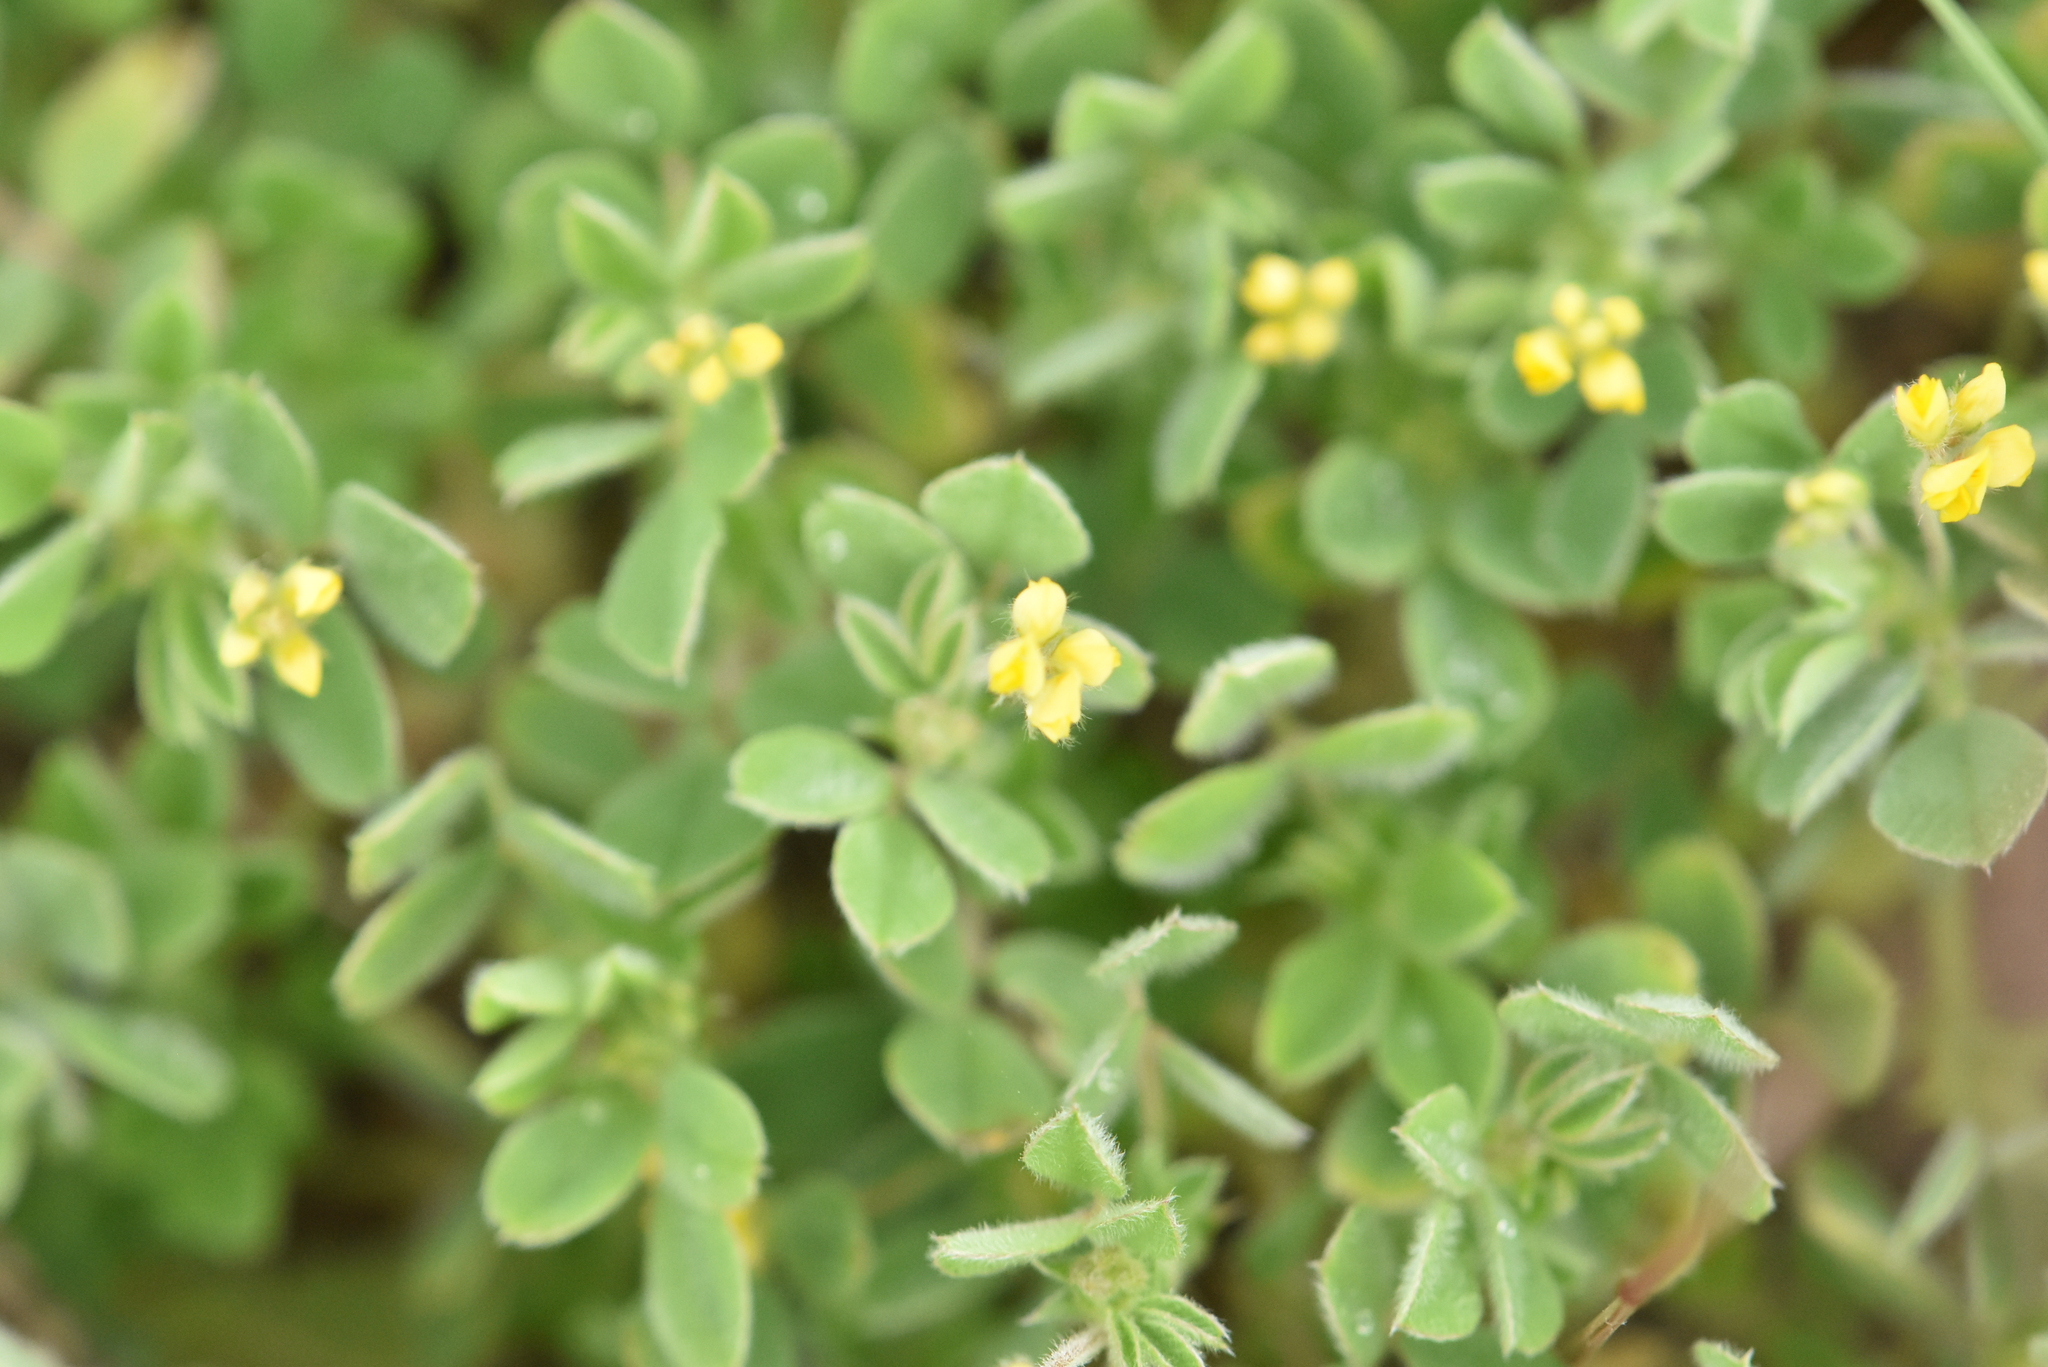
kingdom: Plantae
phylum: Tracheophyta
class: Magnoliopsida
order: Fabales
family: Fabaceae
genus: Medicago
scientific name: Medicago minima
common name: Little bur-clover
